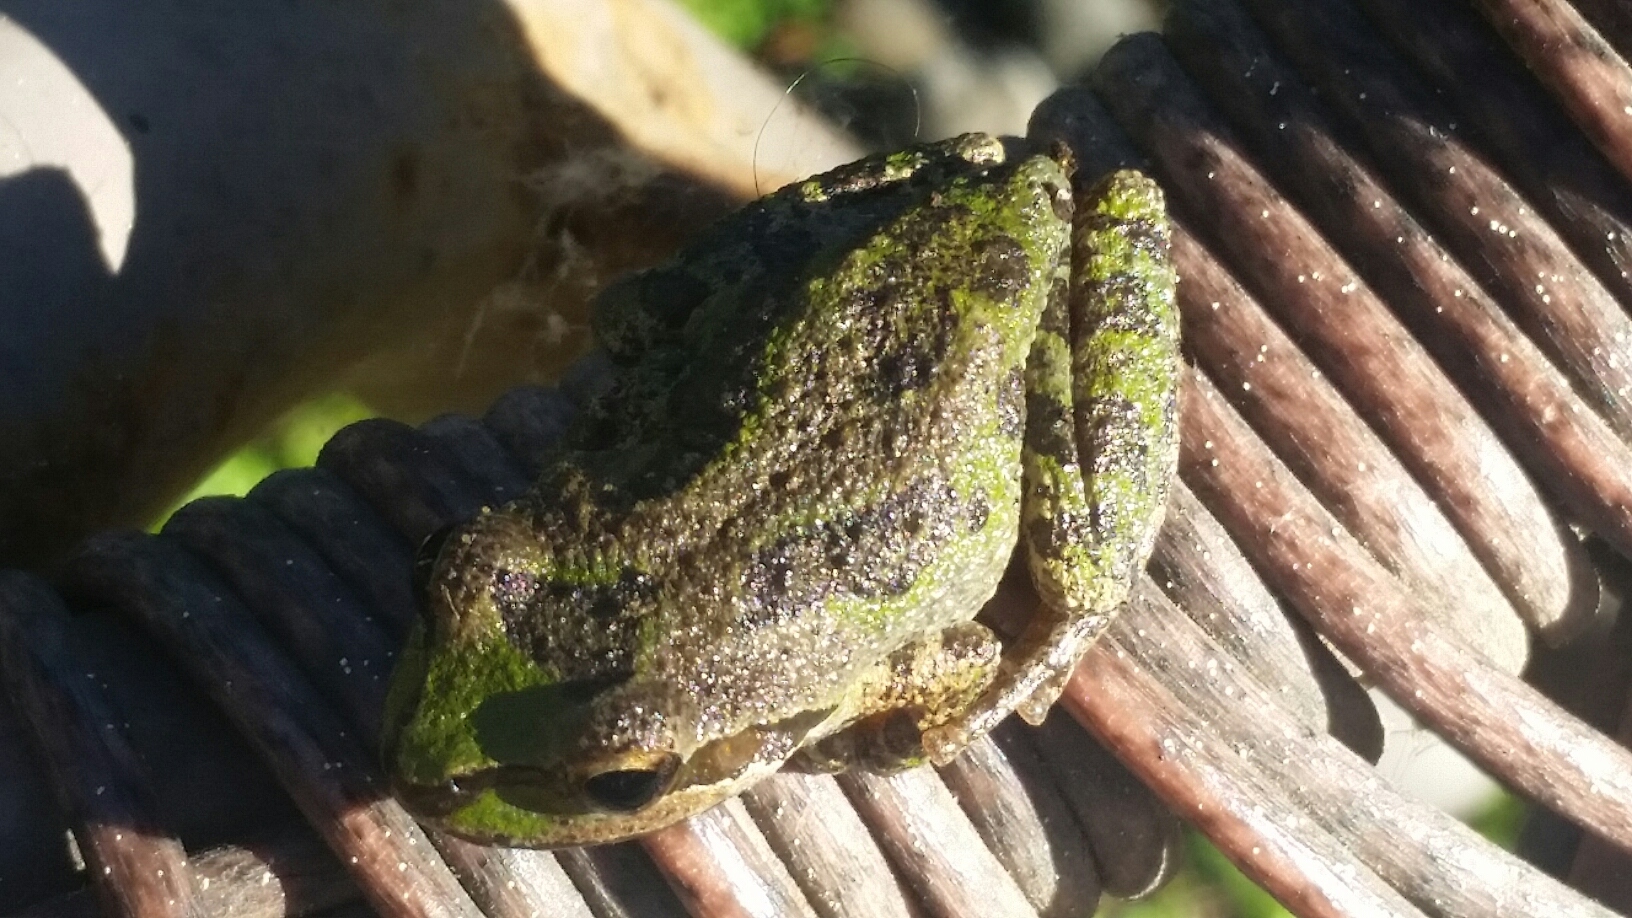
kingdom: Animalia
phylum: Chordata
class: Amphibia
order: Anura
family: Hylidae
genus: Pseudacris
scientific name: Pseudacris regilla
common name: Pacific chorus frog
